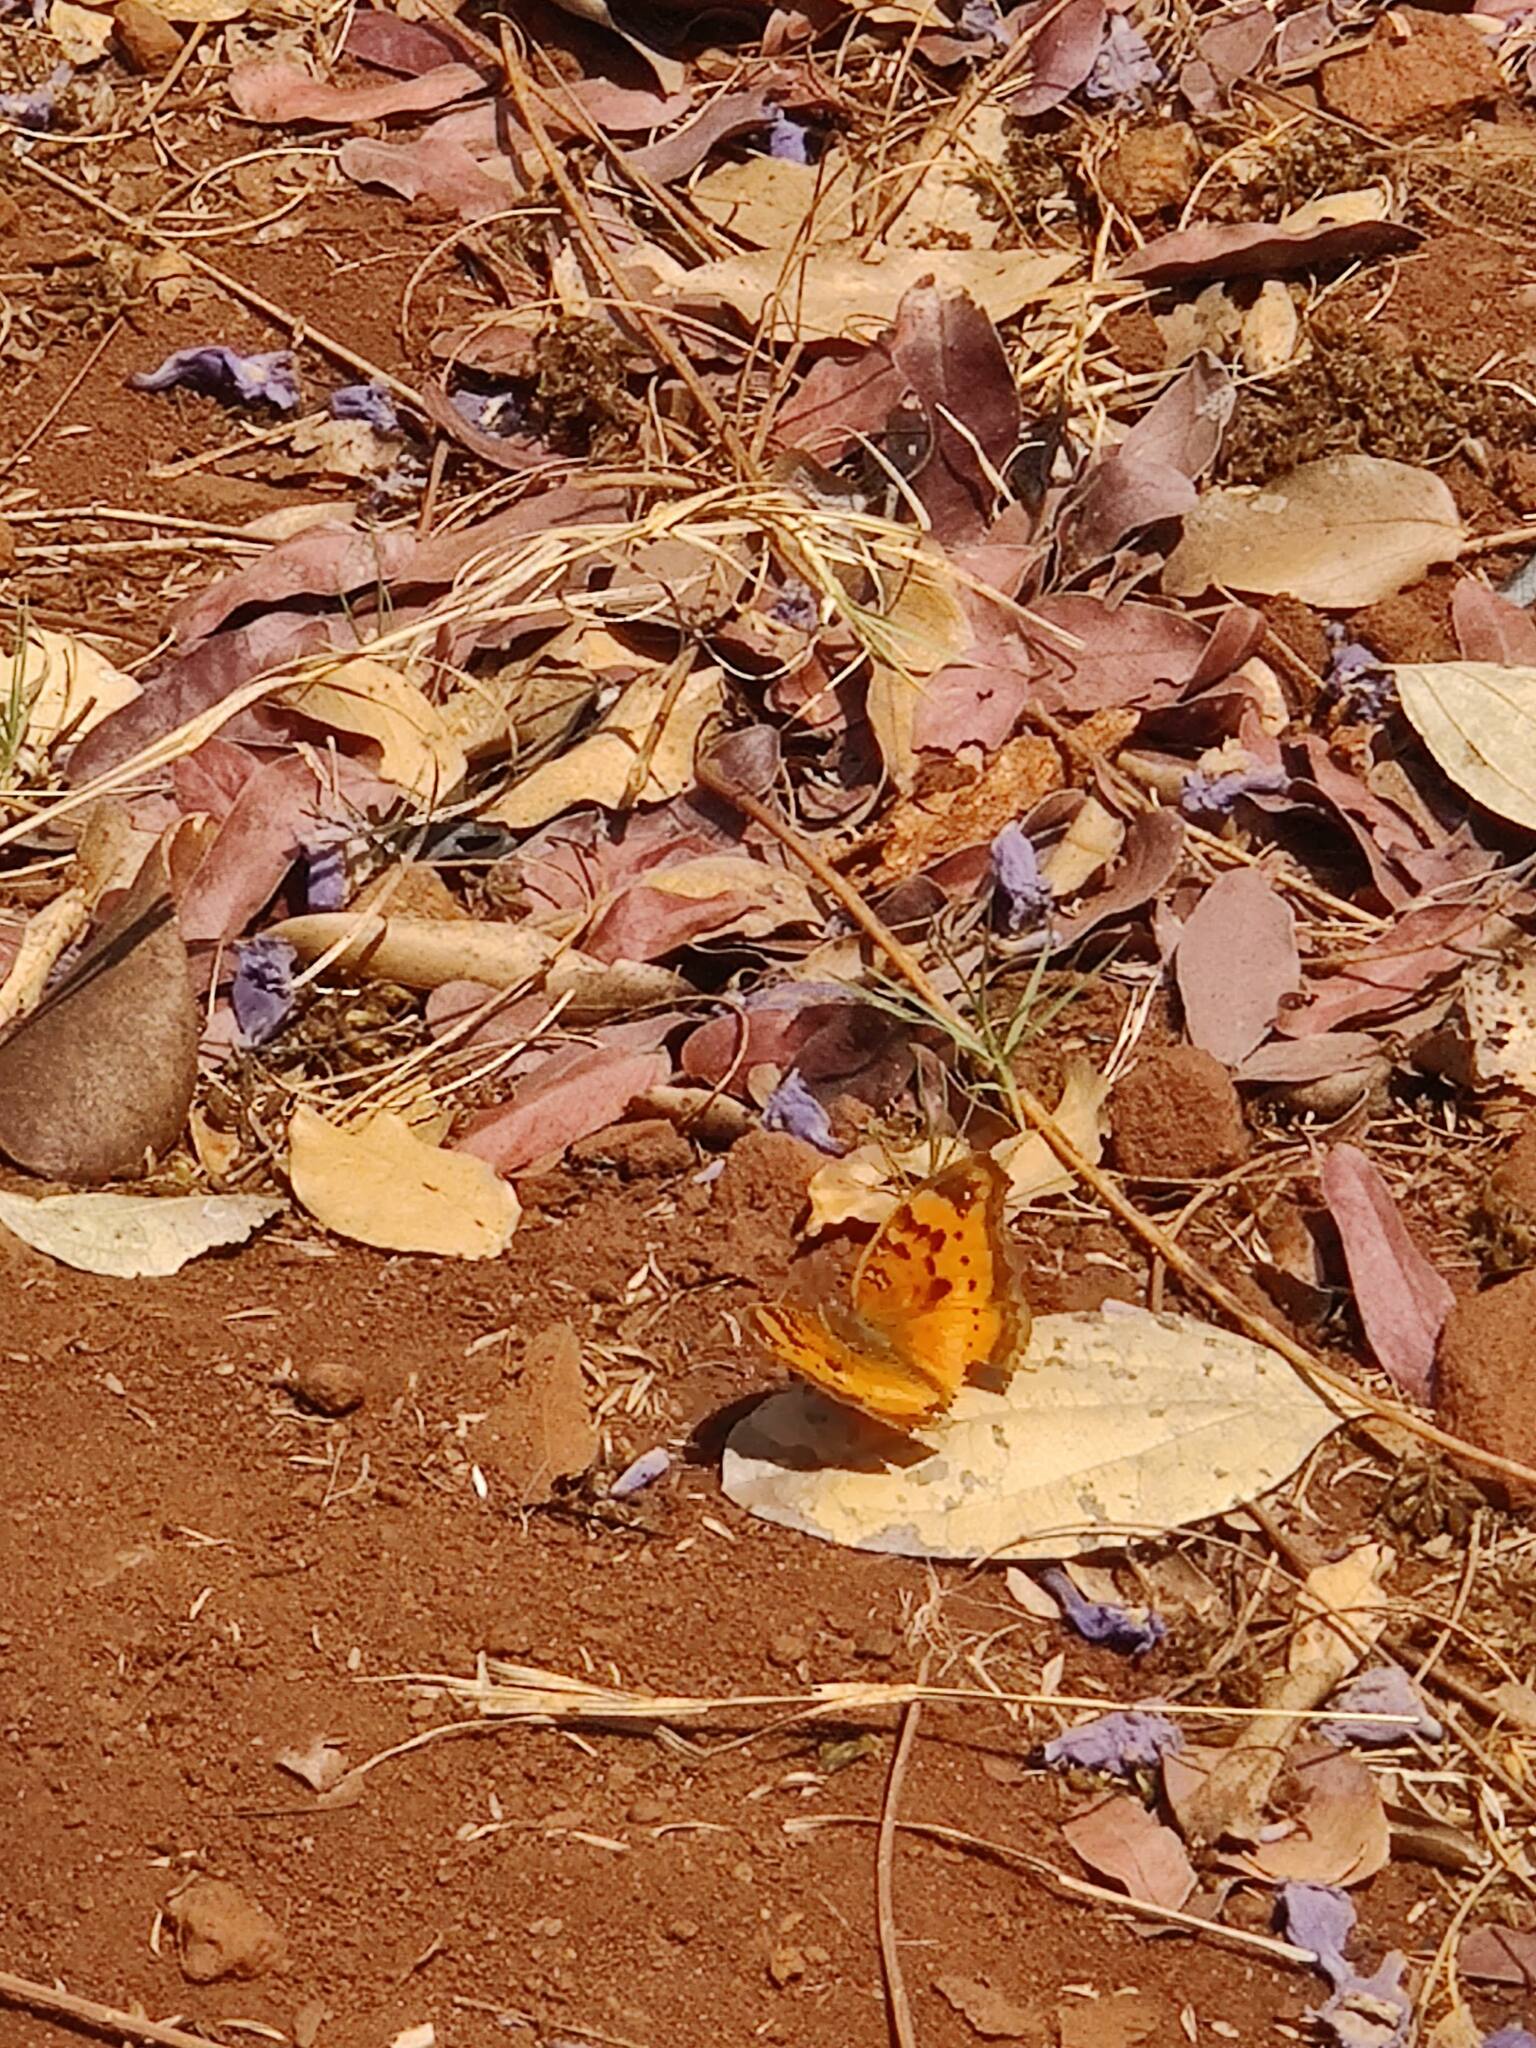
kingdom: Animalia
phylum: Arthropoda
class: Insecta
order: Lepidoptera
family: Nymphalidae
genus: Junonia
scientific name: Junonia cuama
